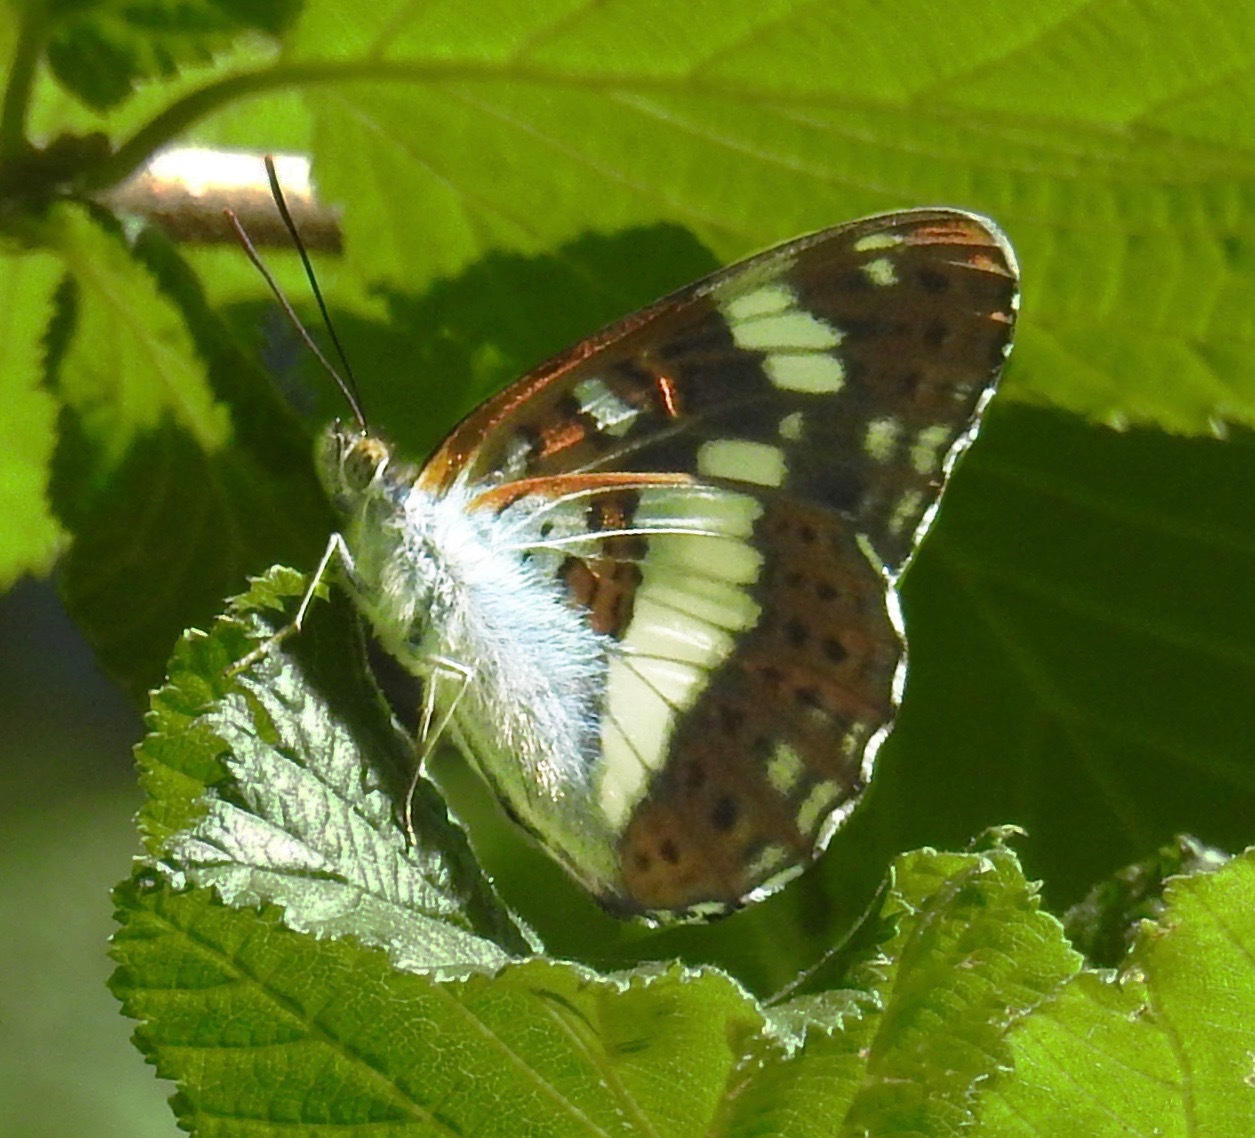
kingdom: Animalia
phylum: Arthropoda
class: Insecta
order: Lepidoptera
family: Nymphalidae
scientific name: Nymphalidae
